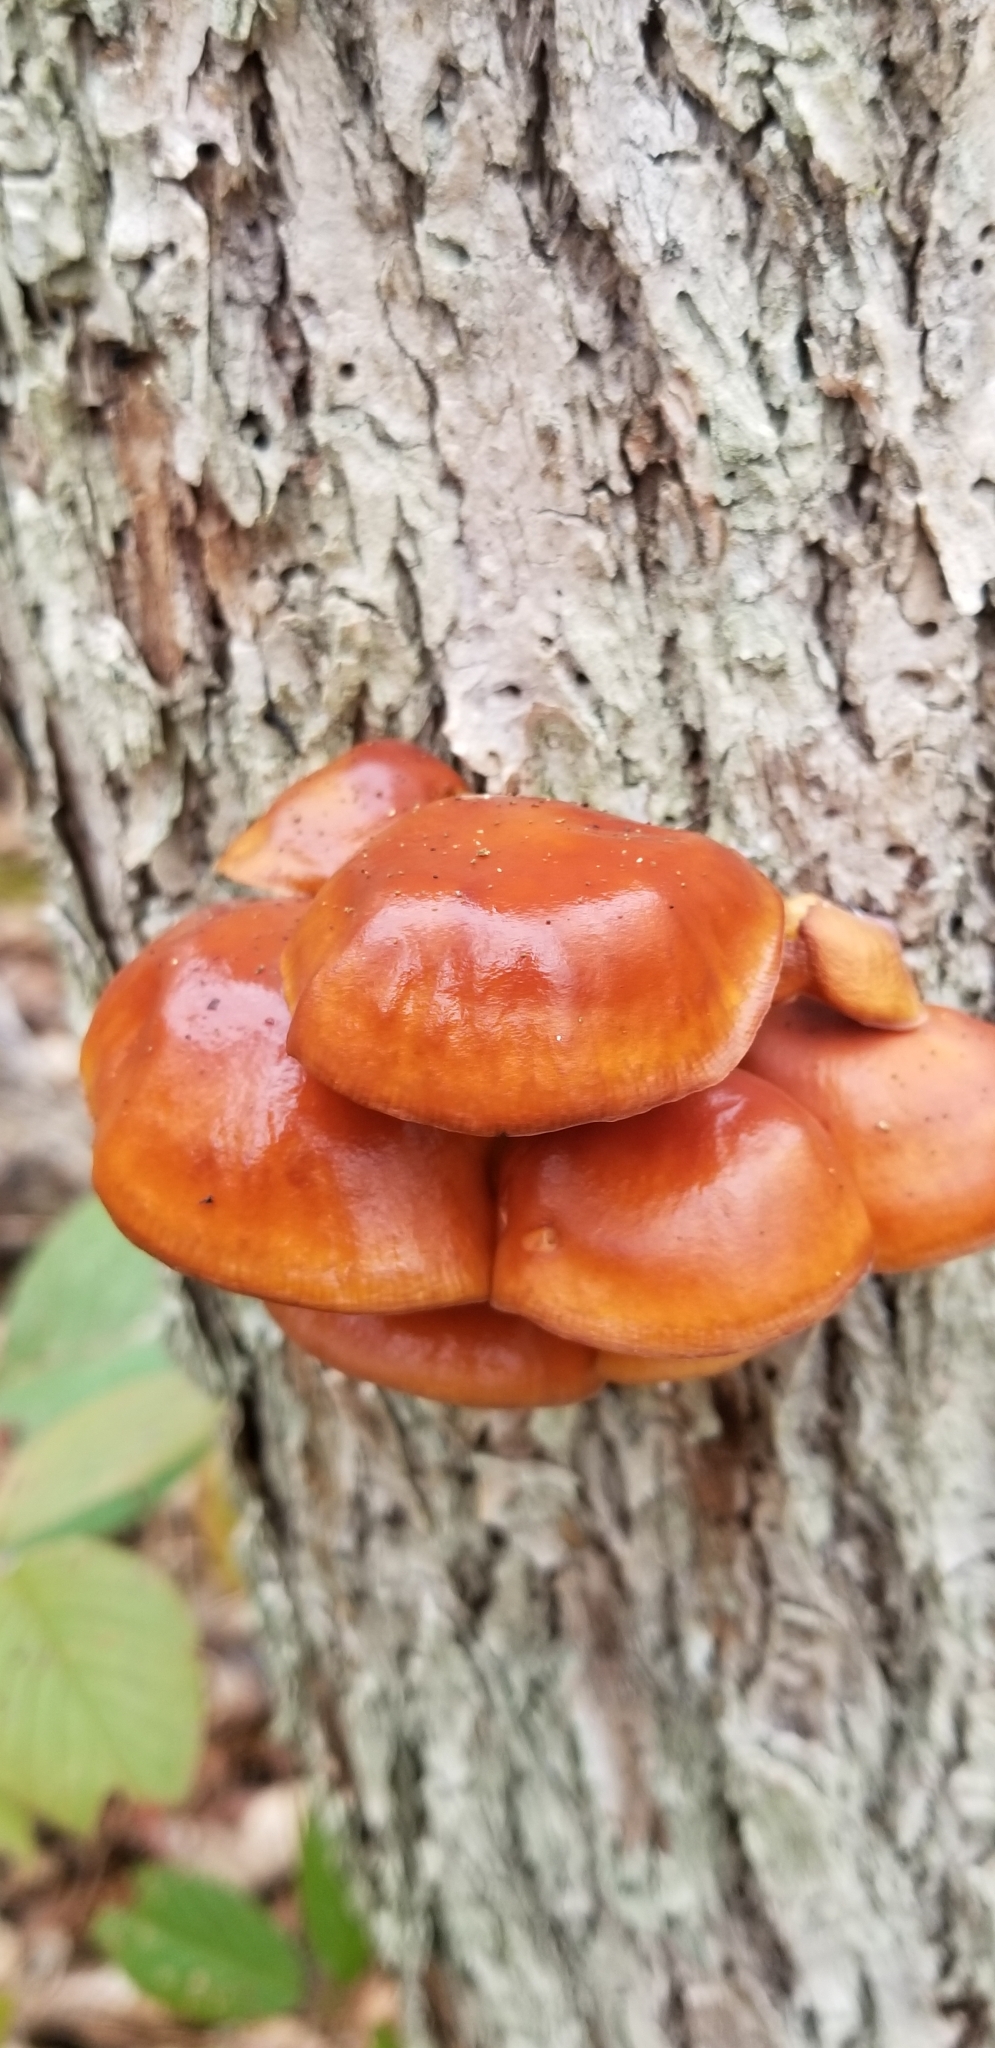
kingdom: Fungi
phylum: Basidiomycota
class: Agaricomycetes
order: Agaricales
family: Physalacriaceae
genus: Flammulina
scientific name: Flammulina velutipes
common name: Velvet shank
